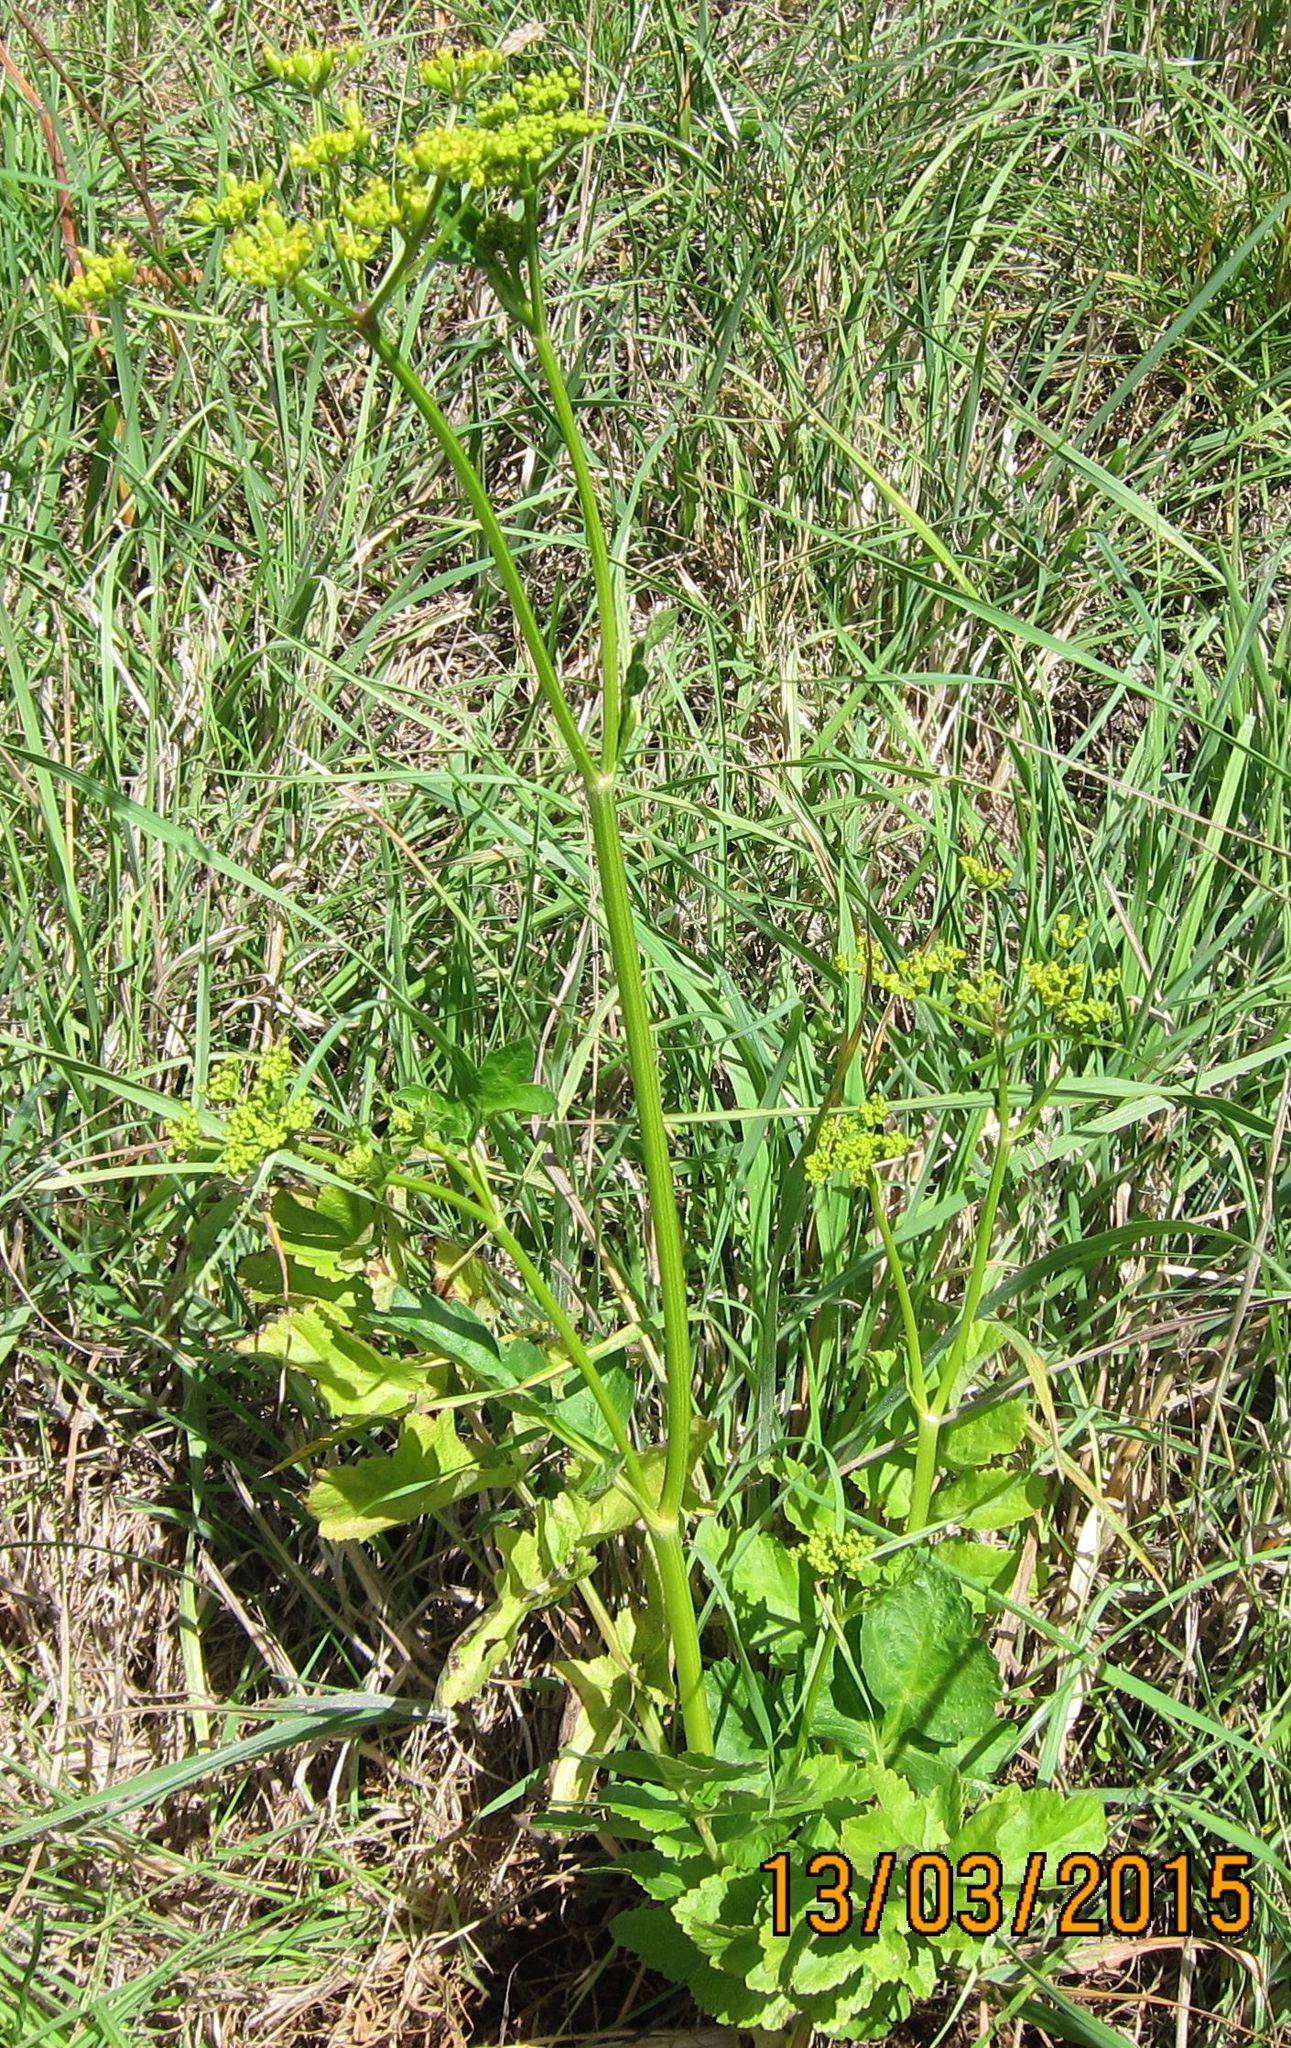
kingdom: Plantae
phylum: Tracheophyta
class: Magnoliopsida
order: Apiales
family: Apiaceae
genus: Pastinaca
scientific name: Pastinaca sativa
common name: Wild parsnip
